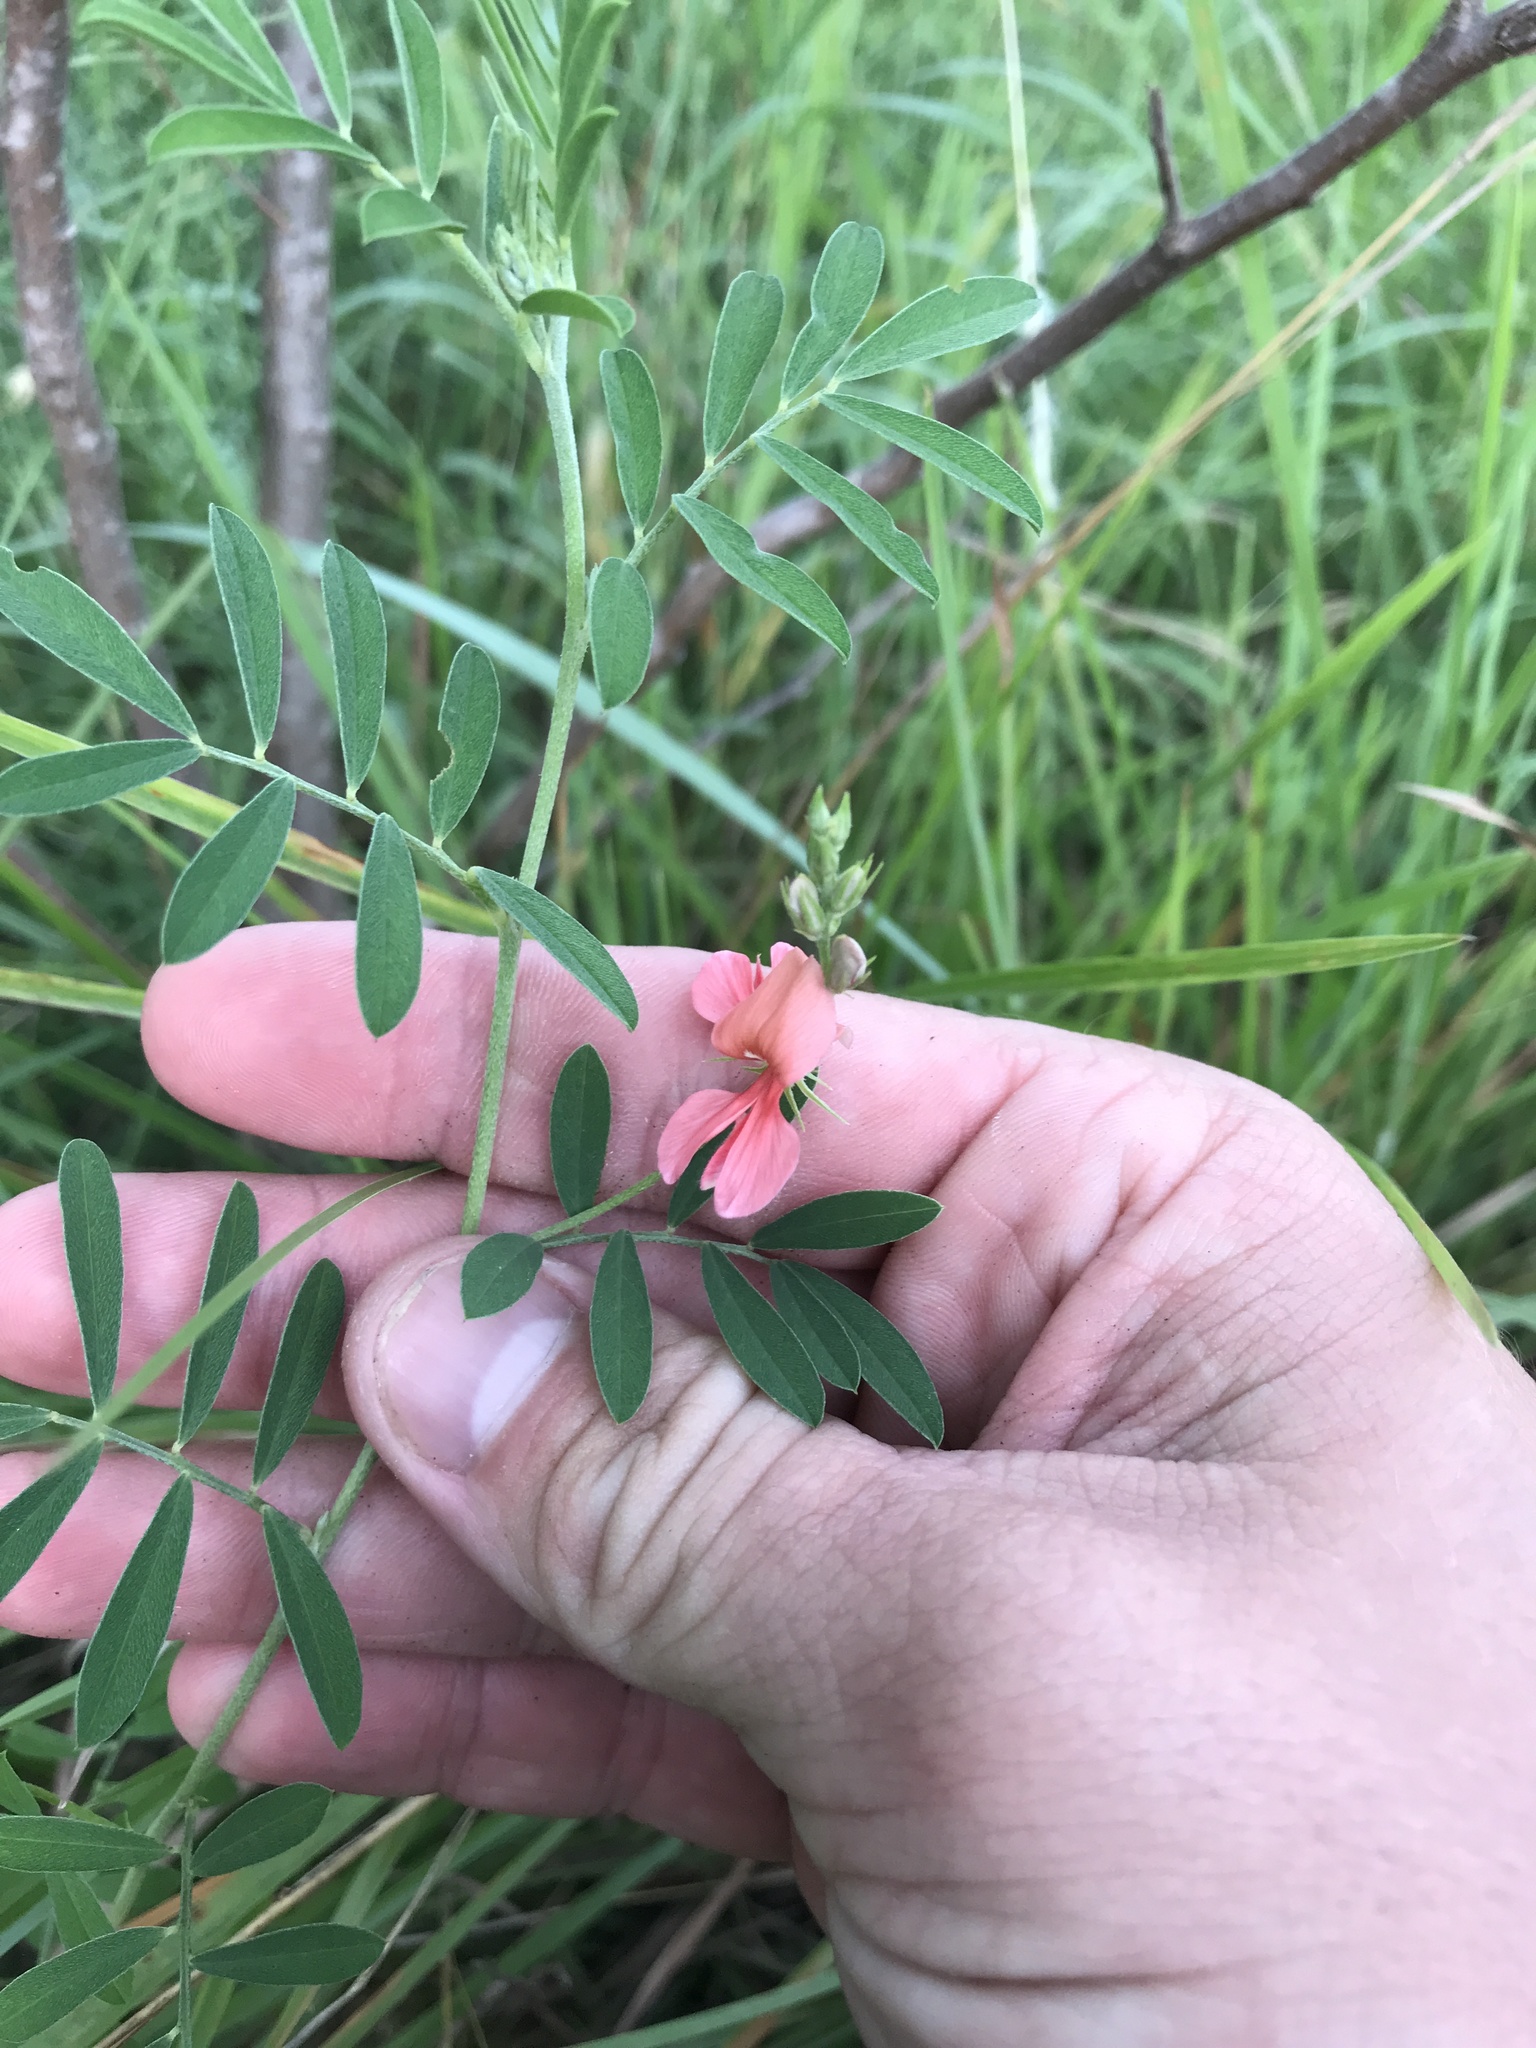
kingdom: Plantae
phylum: Tracheophyta
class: Magnoliopsida
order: Fabales
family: Fabaceae
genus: Indigofera
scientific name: Indigofera miniata
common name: Coast indigo
